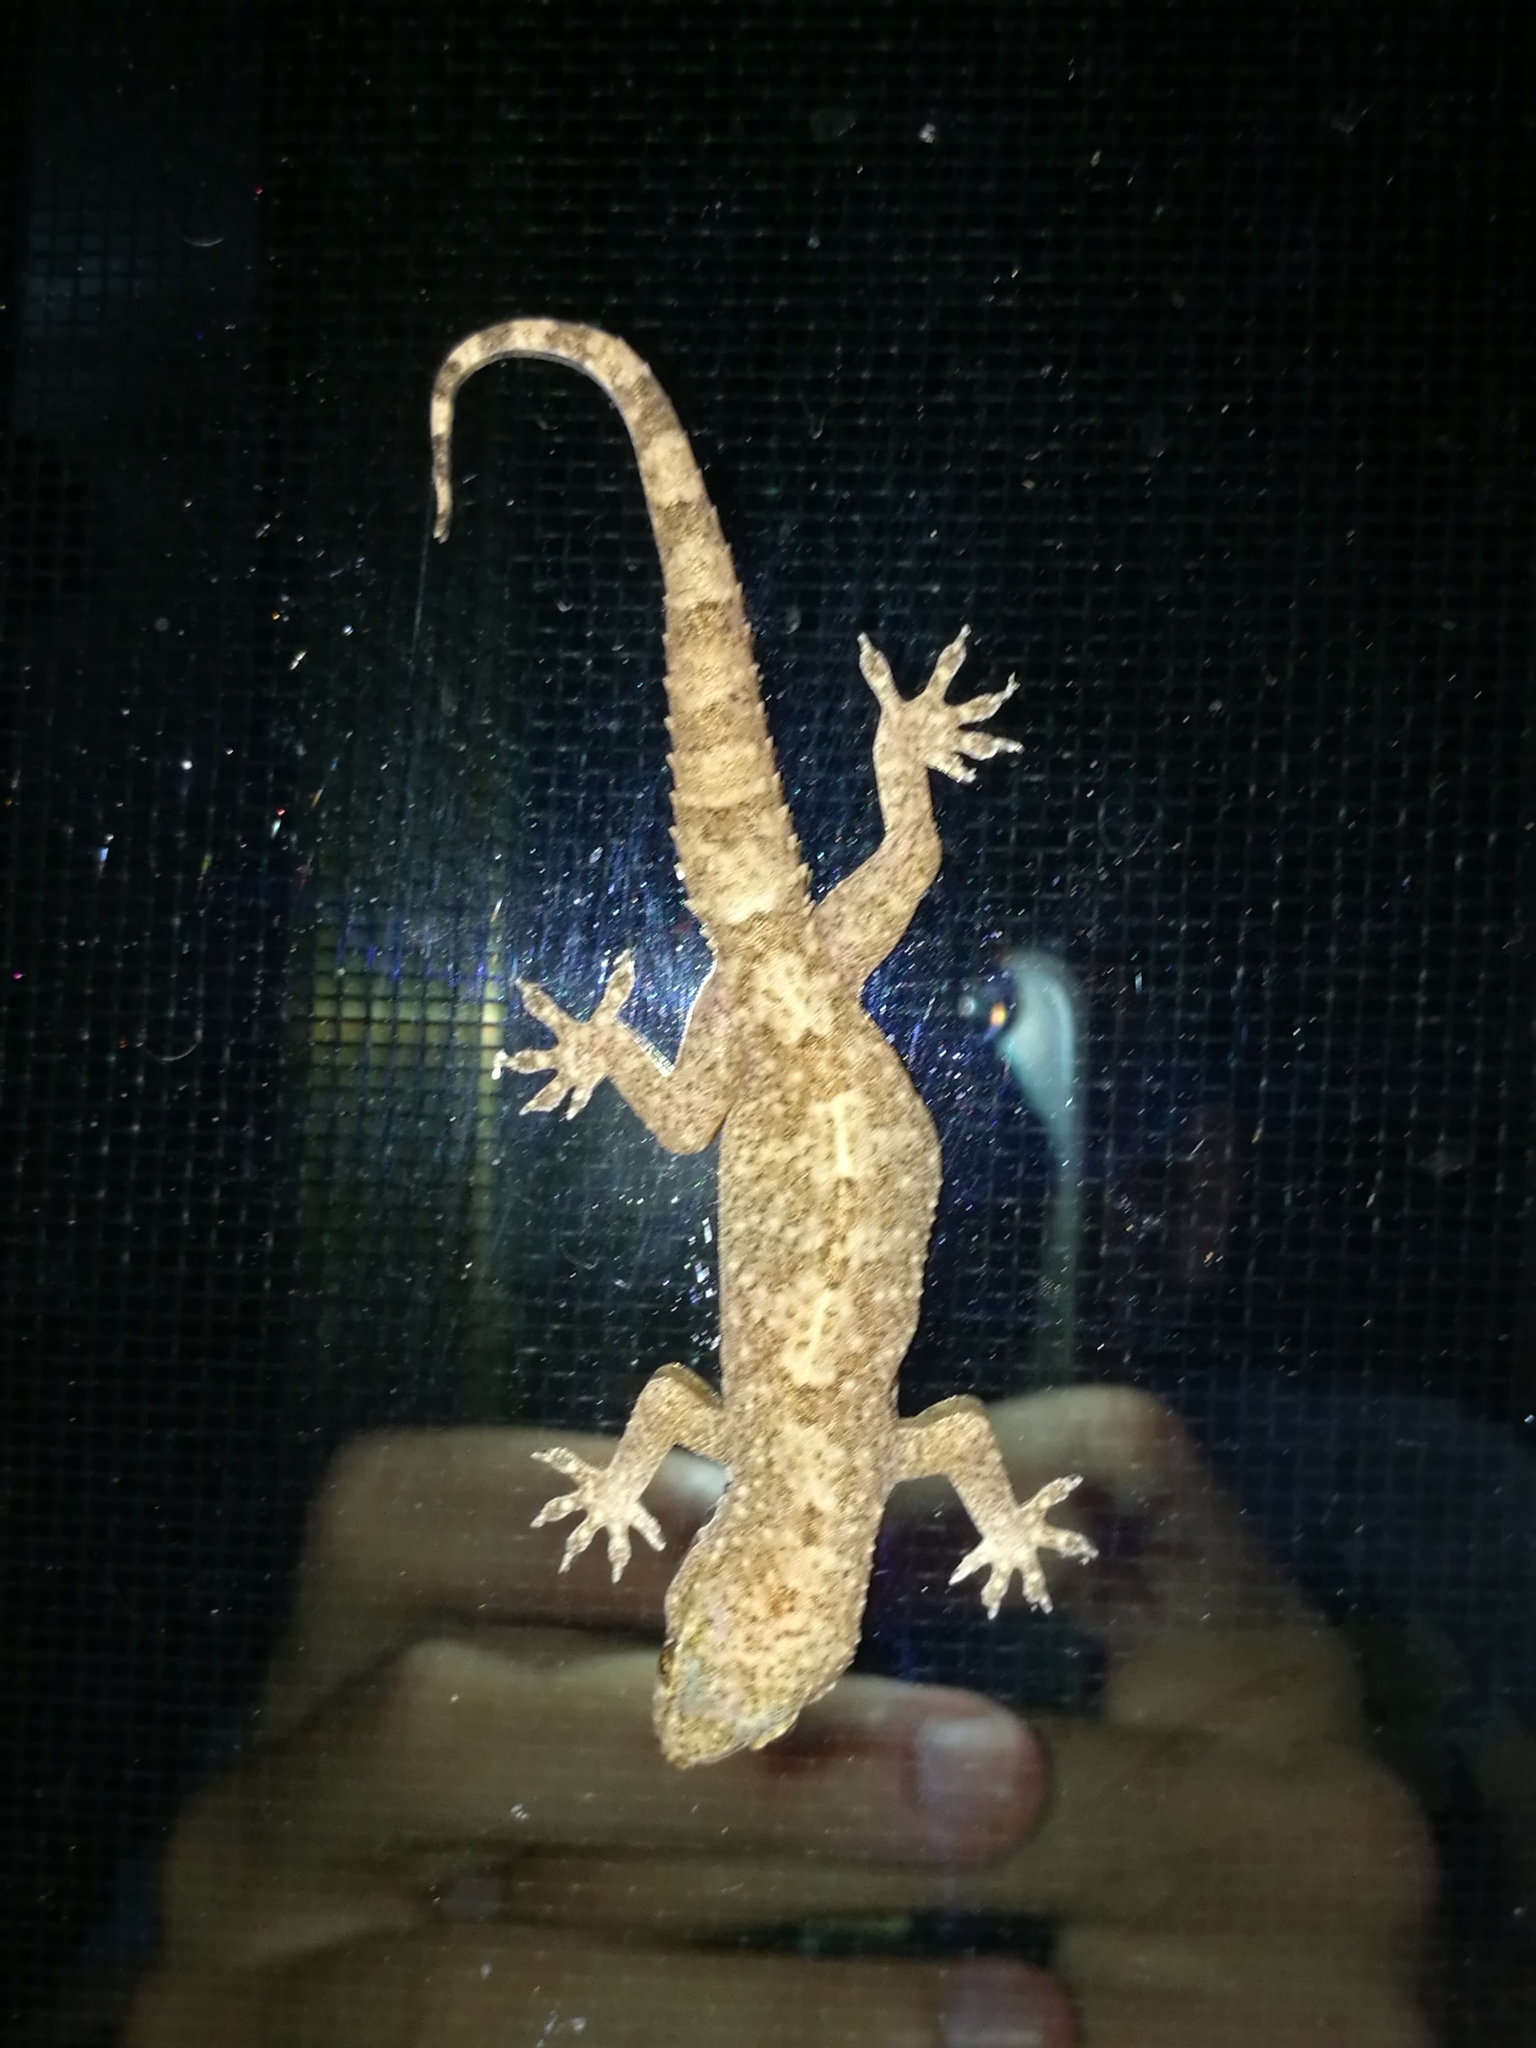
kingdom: Animalia
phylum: Chordata
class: Squamata
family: Gekkonidae
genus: Hemidactylus
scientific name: Hemidactylus angulatus
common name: Brook's house gecko
